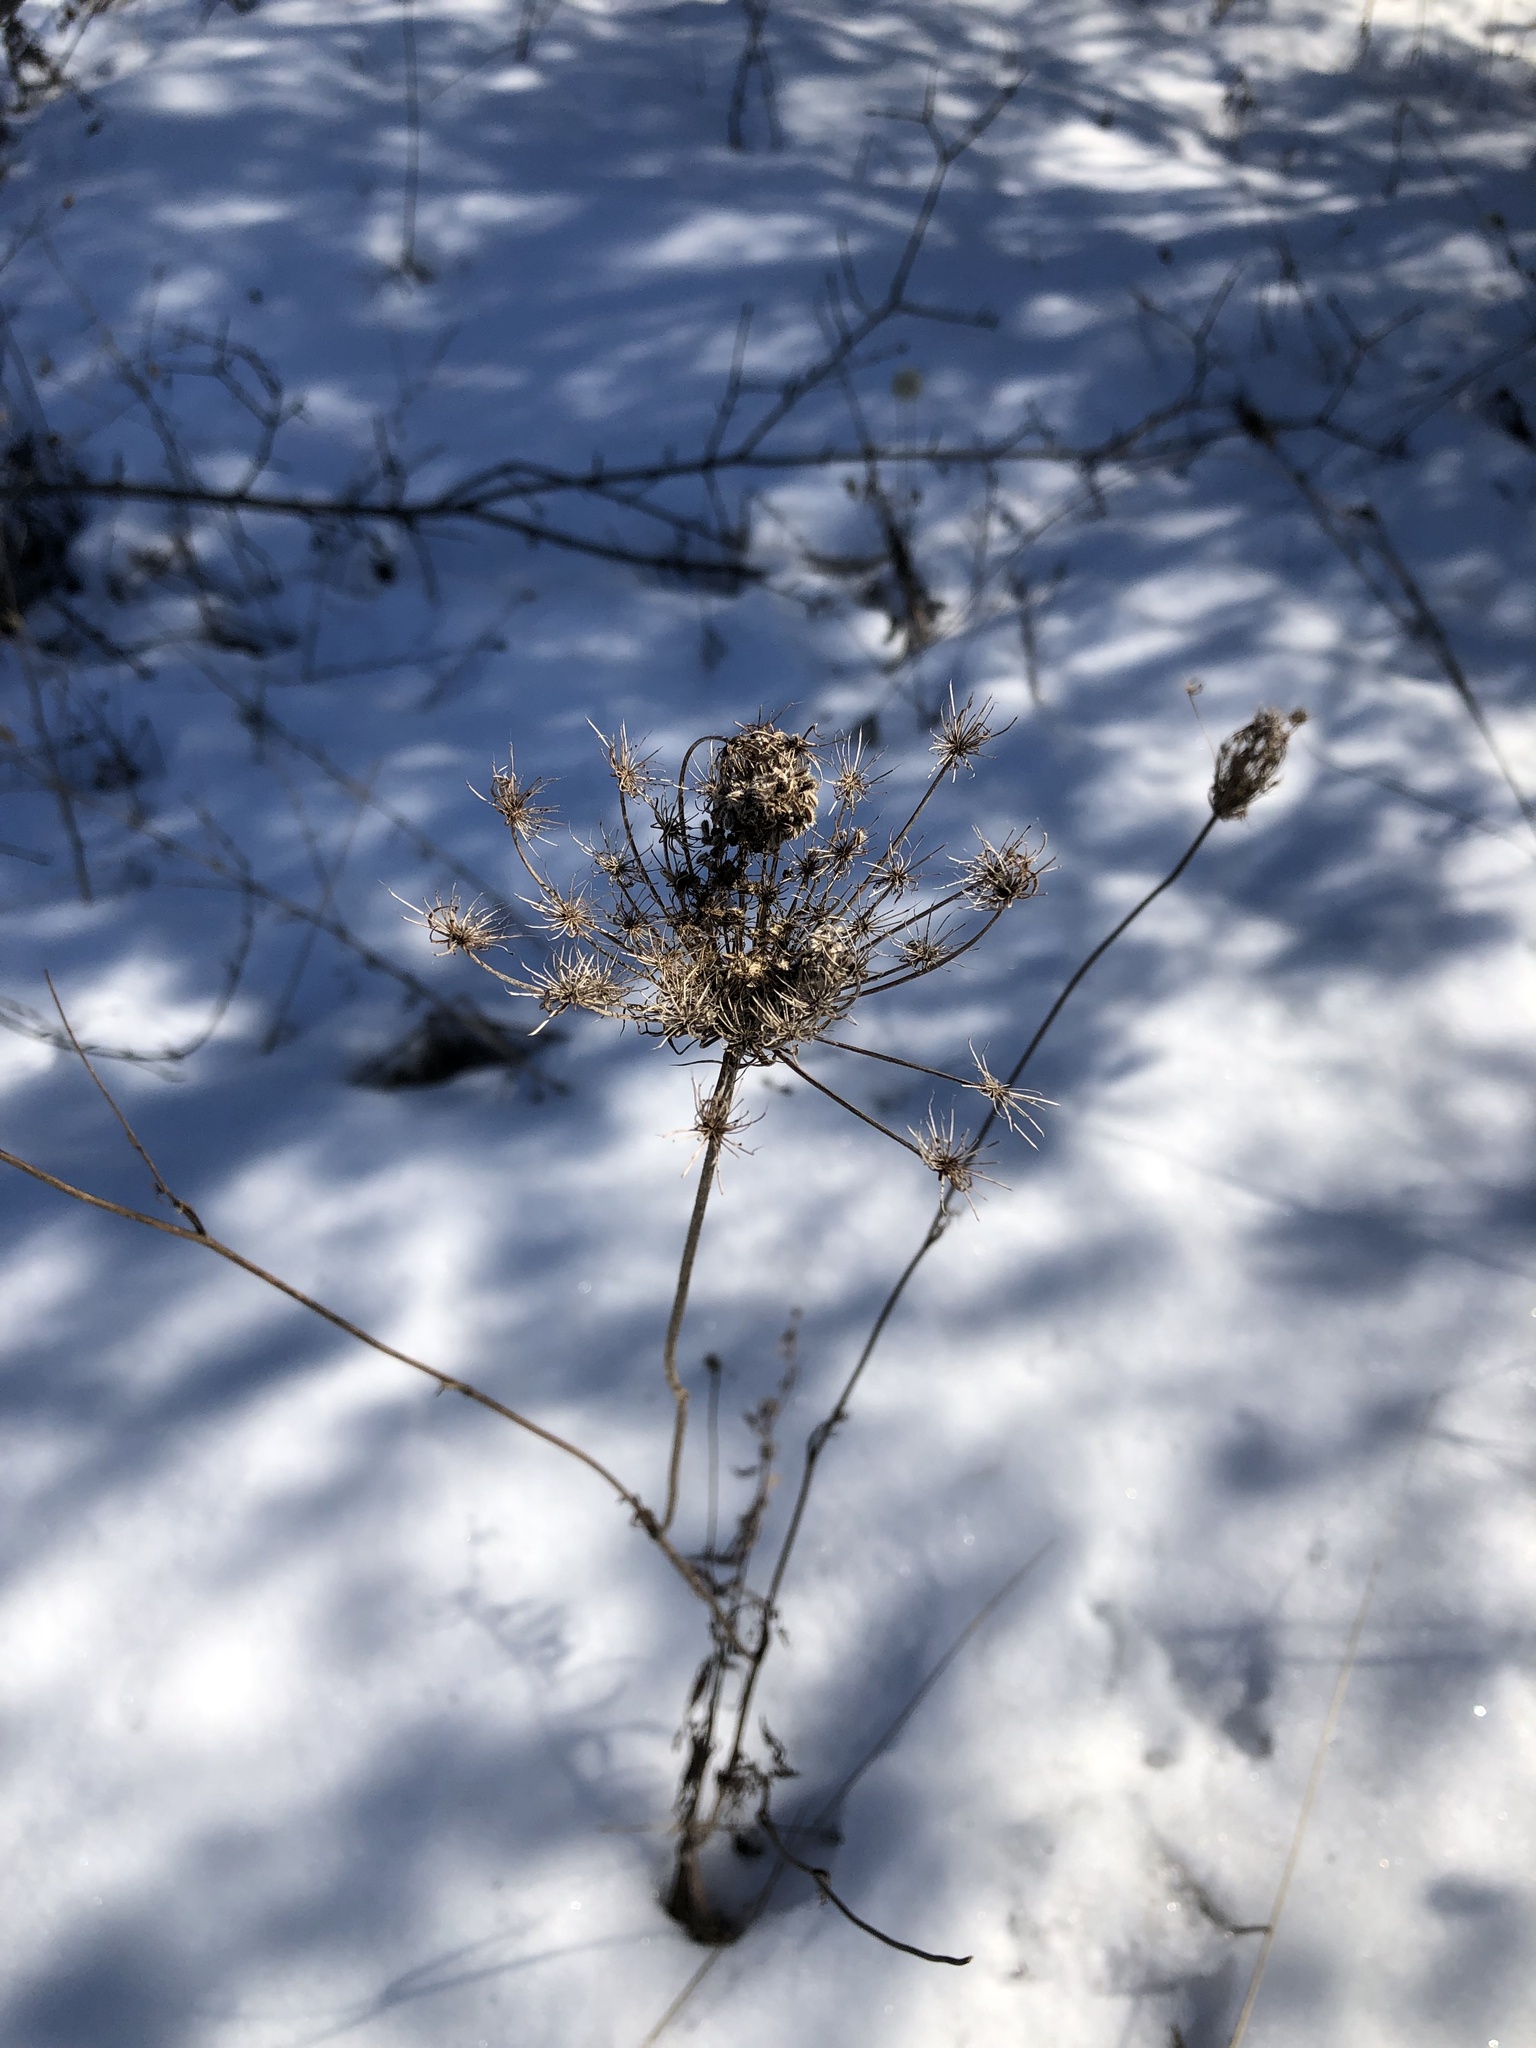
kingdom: Plantae
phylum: Tracheophyta
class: Magnoliopsida
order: Apiales
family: Apiaceae
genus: Daucus
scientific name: Daucus carota
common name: Wild carrot
